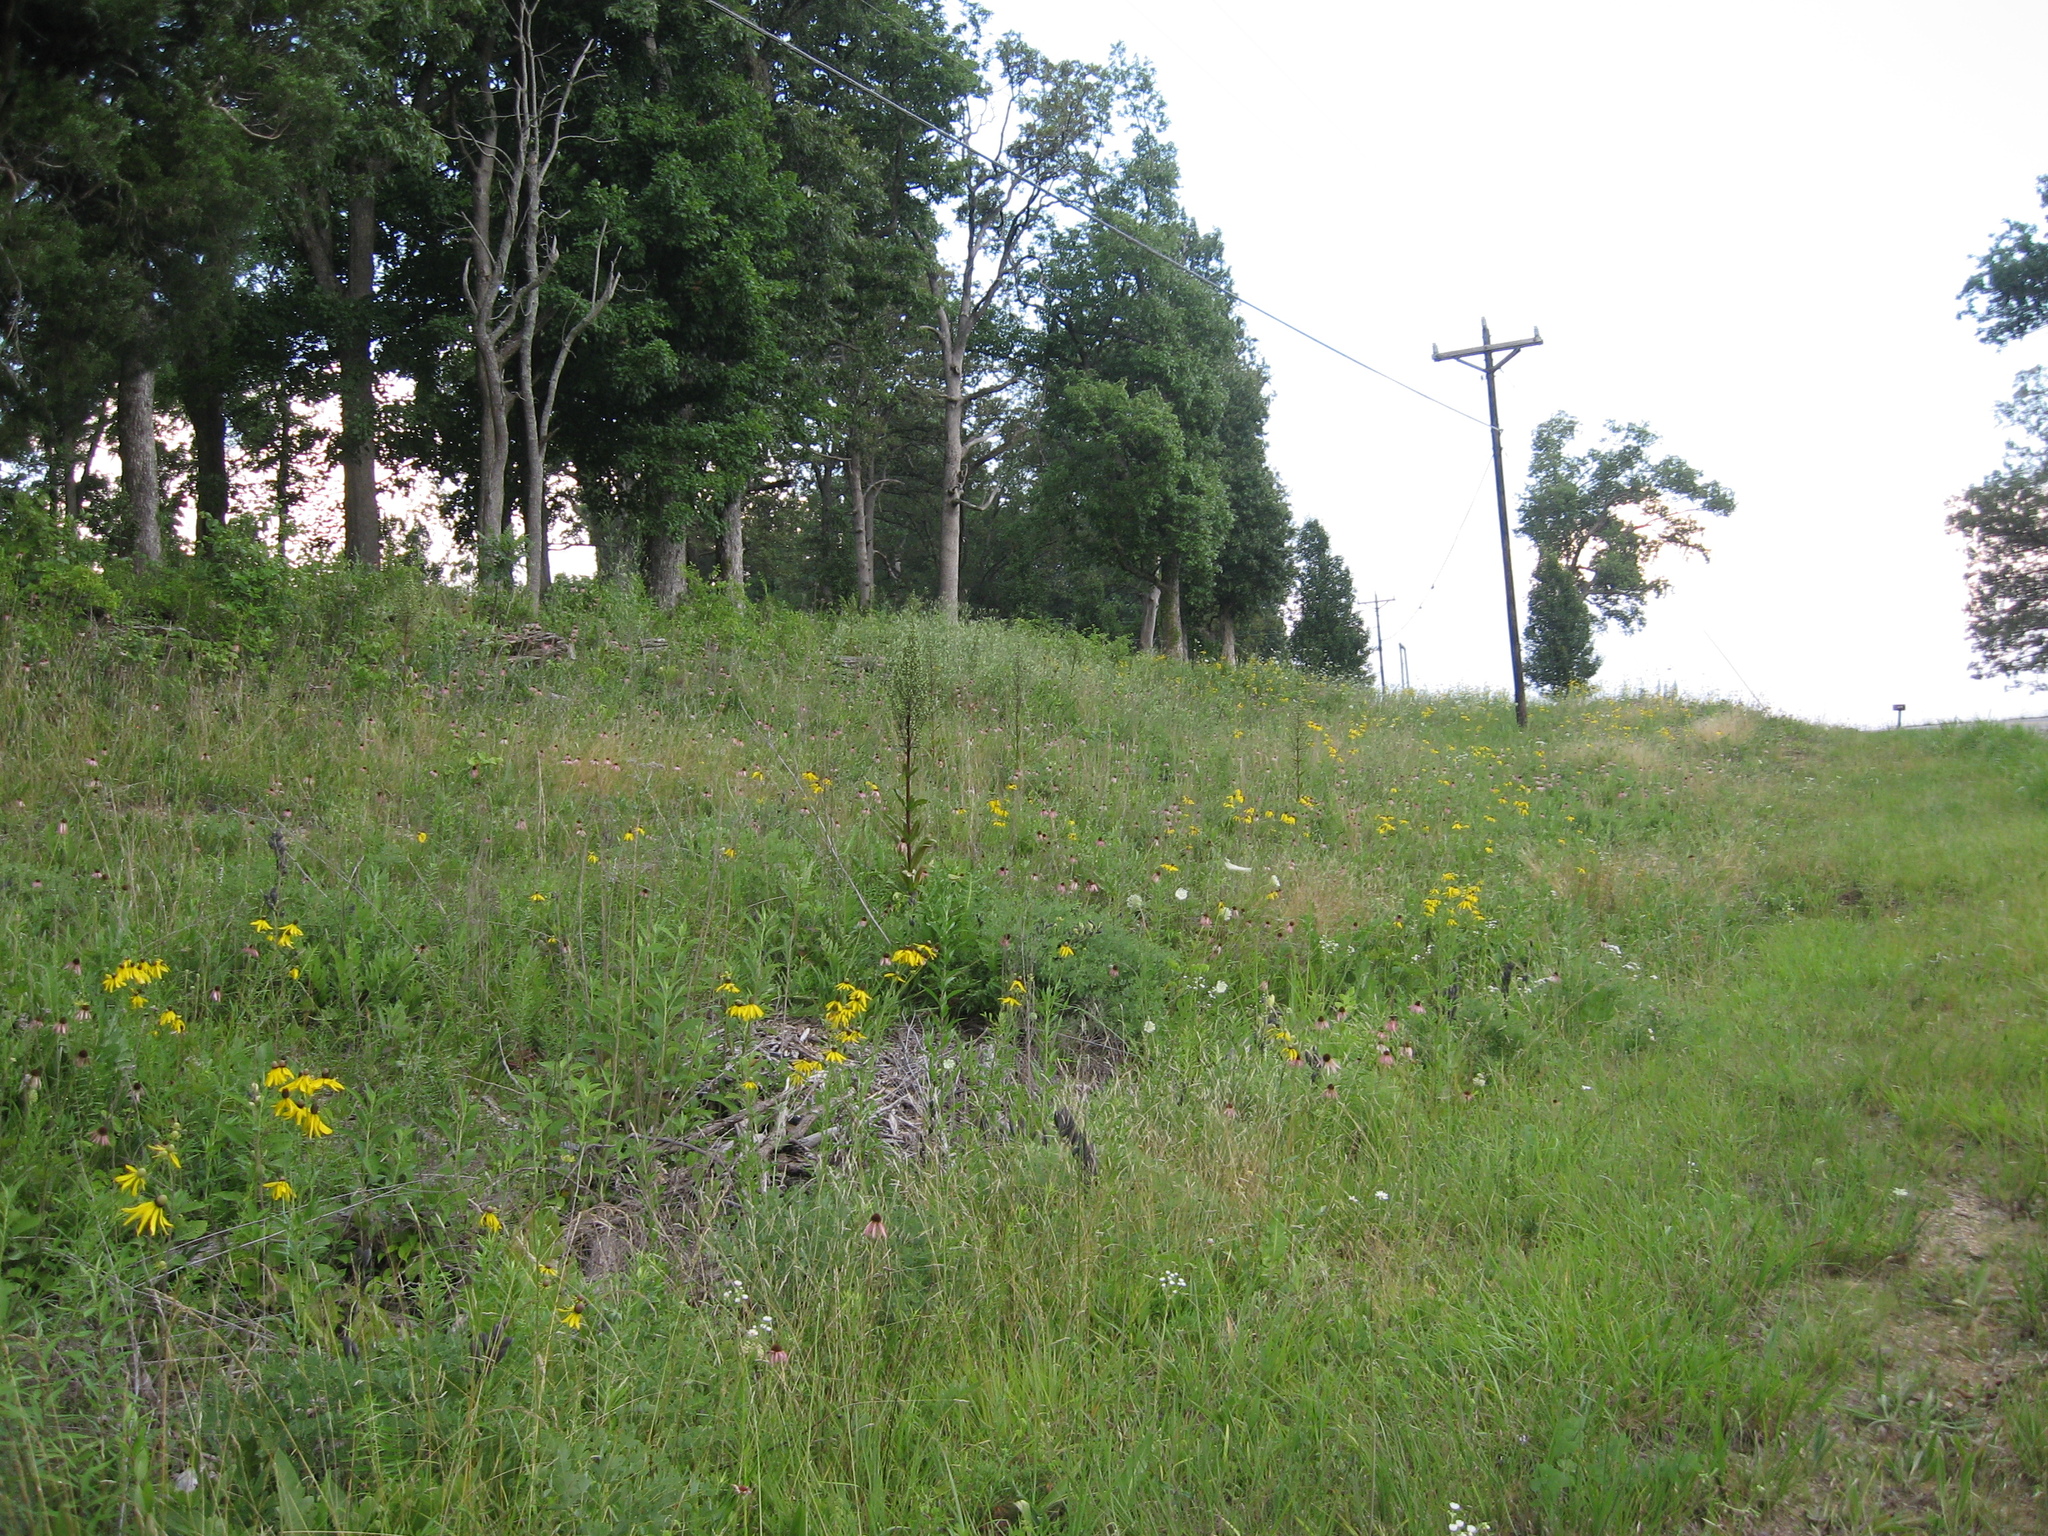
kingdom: Plantae
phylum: Tracheophyta
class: Magnoliopsida
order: Asterales
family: Asteraceae
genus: Echinacea
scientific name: Echinacea simulata
